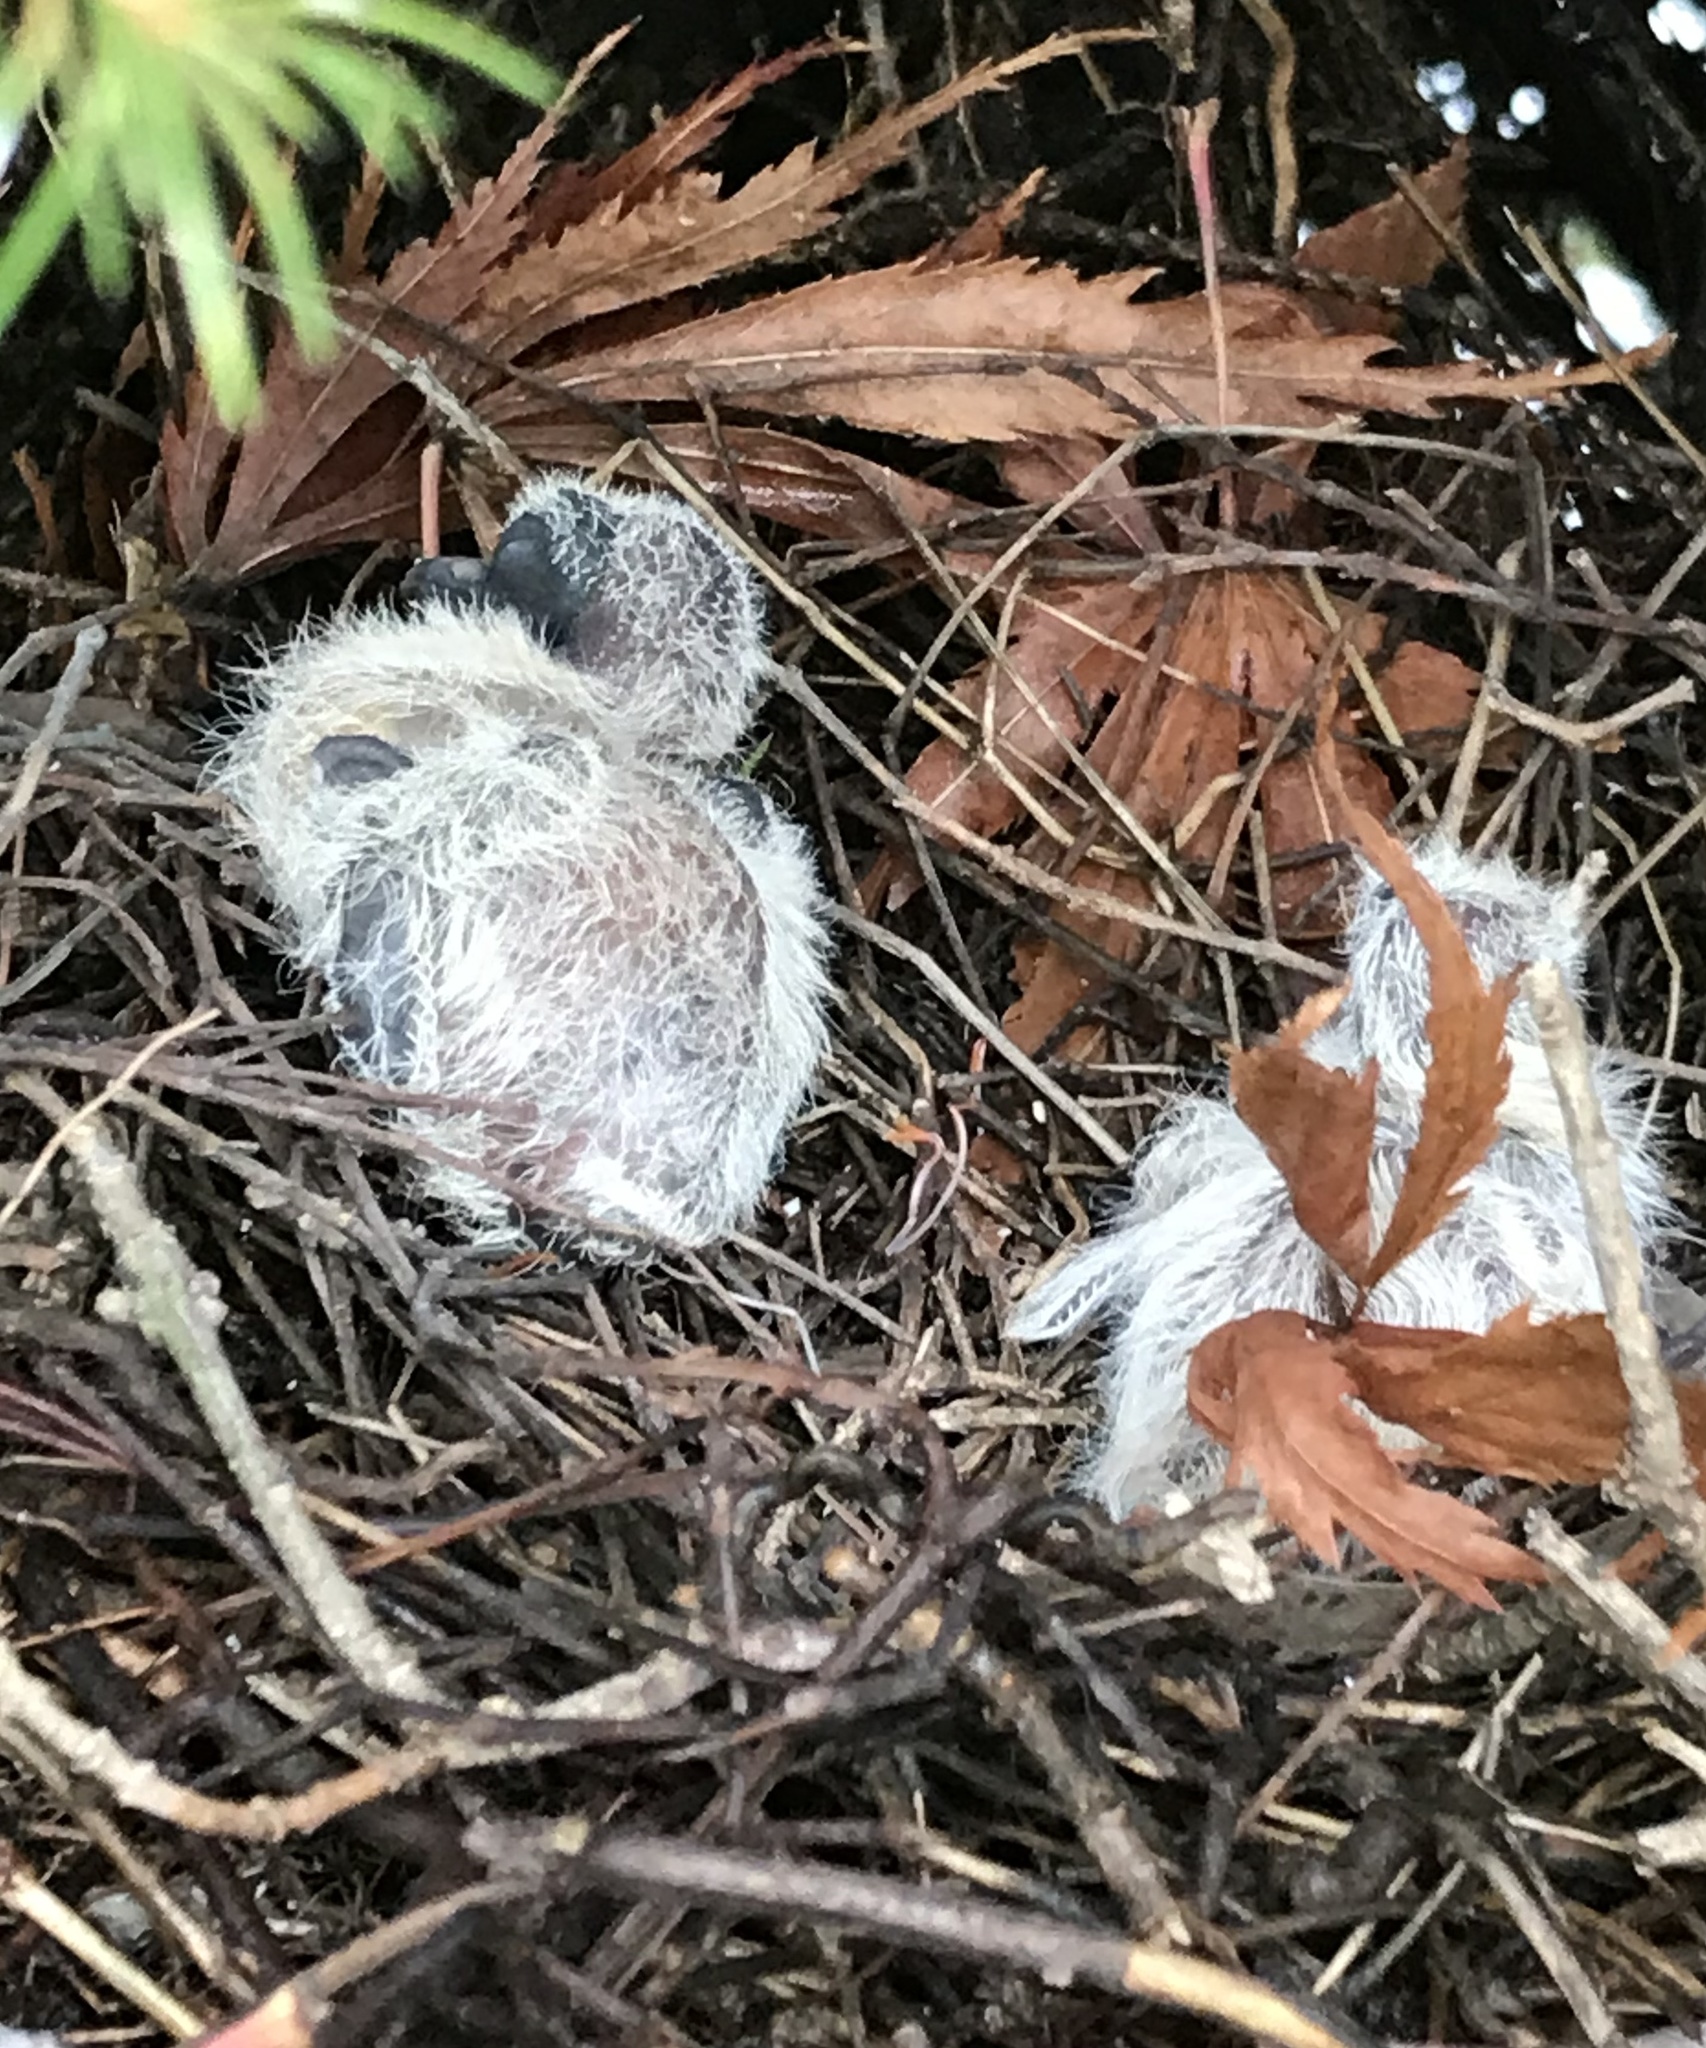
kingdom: Animalia
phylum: Chordata
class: Aves
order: Columbiformes
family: Columbidae
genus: Zenaida
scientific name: Zenaida macroura
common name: Mourning dove
